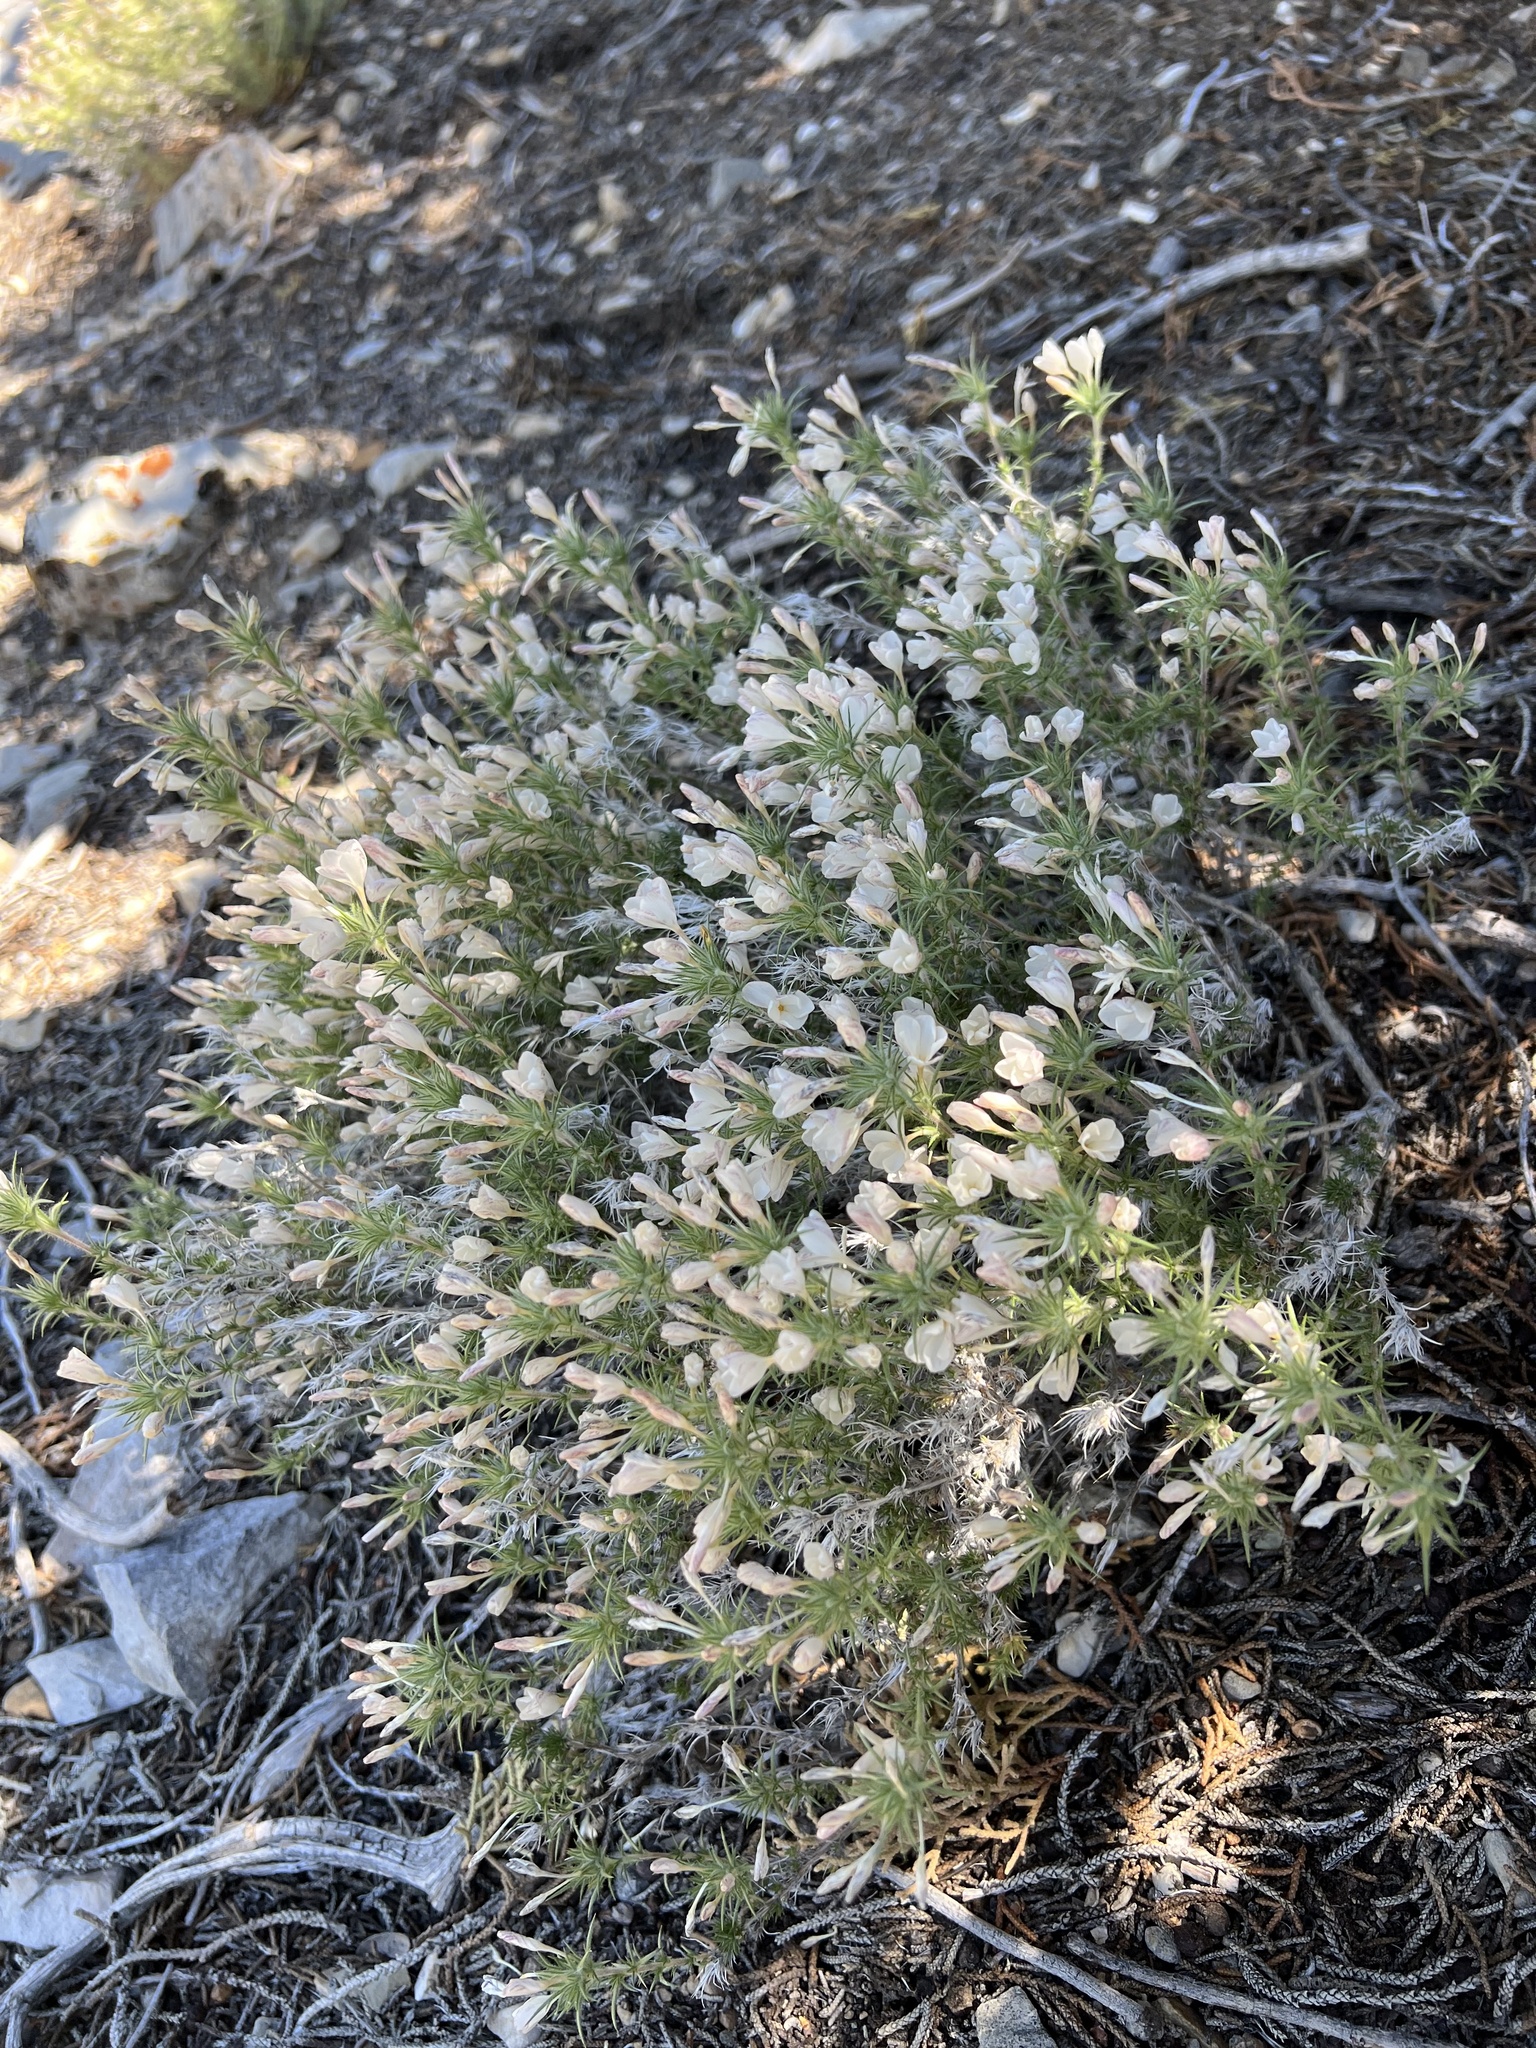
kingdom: Plantae
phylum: Tracheophyta
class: Magnoliopsida
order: Ericales
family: Polemoniaceae
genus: Linanthus
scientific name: Linanthus pungens
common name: Granite prickly phlox
